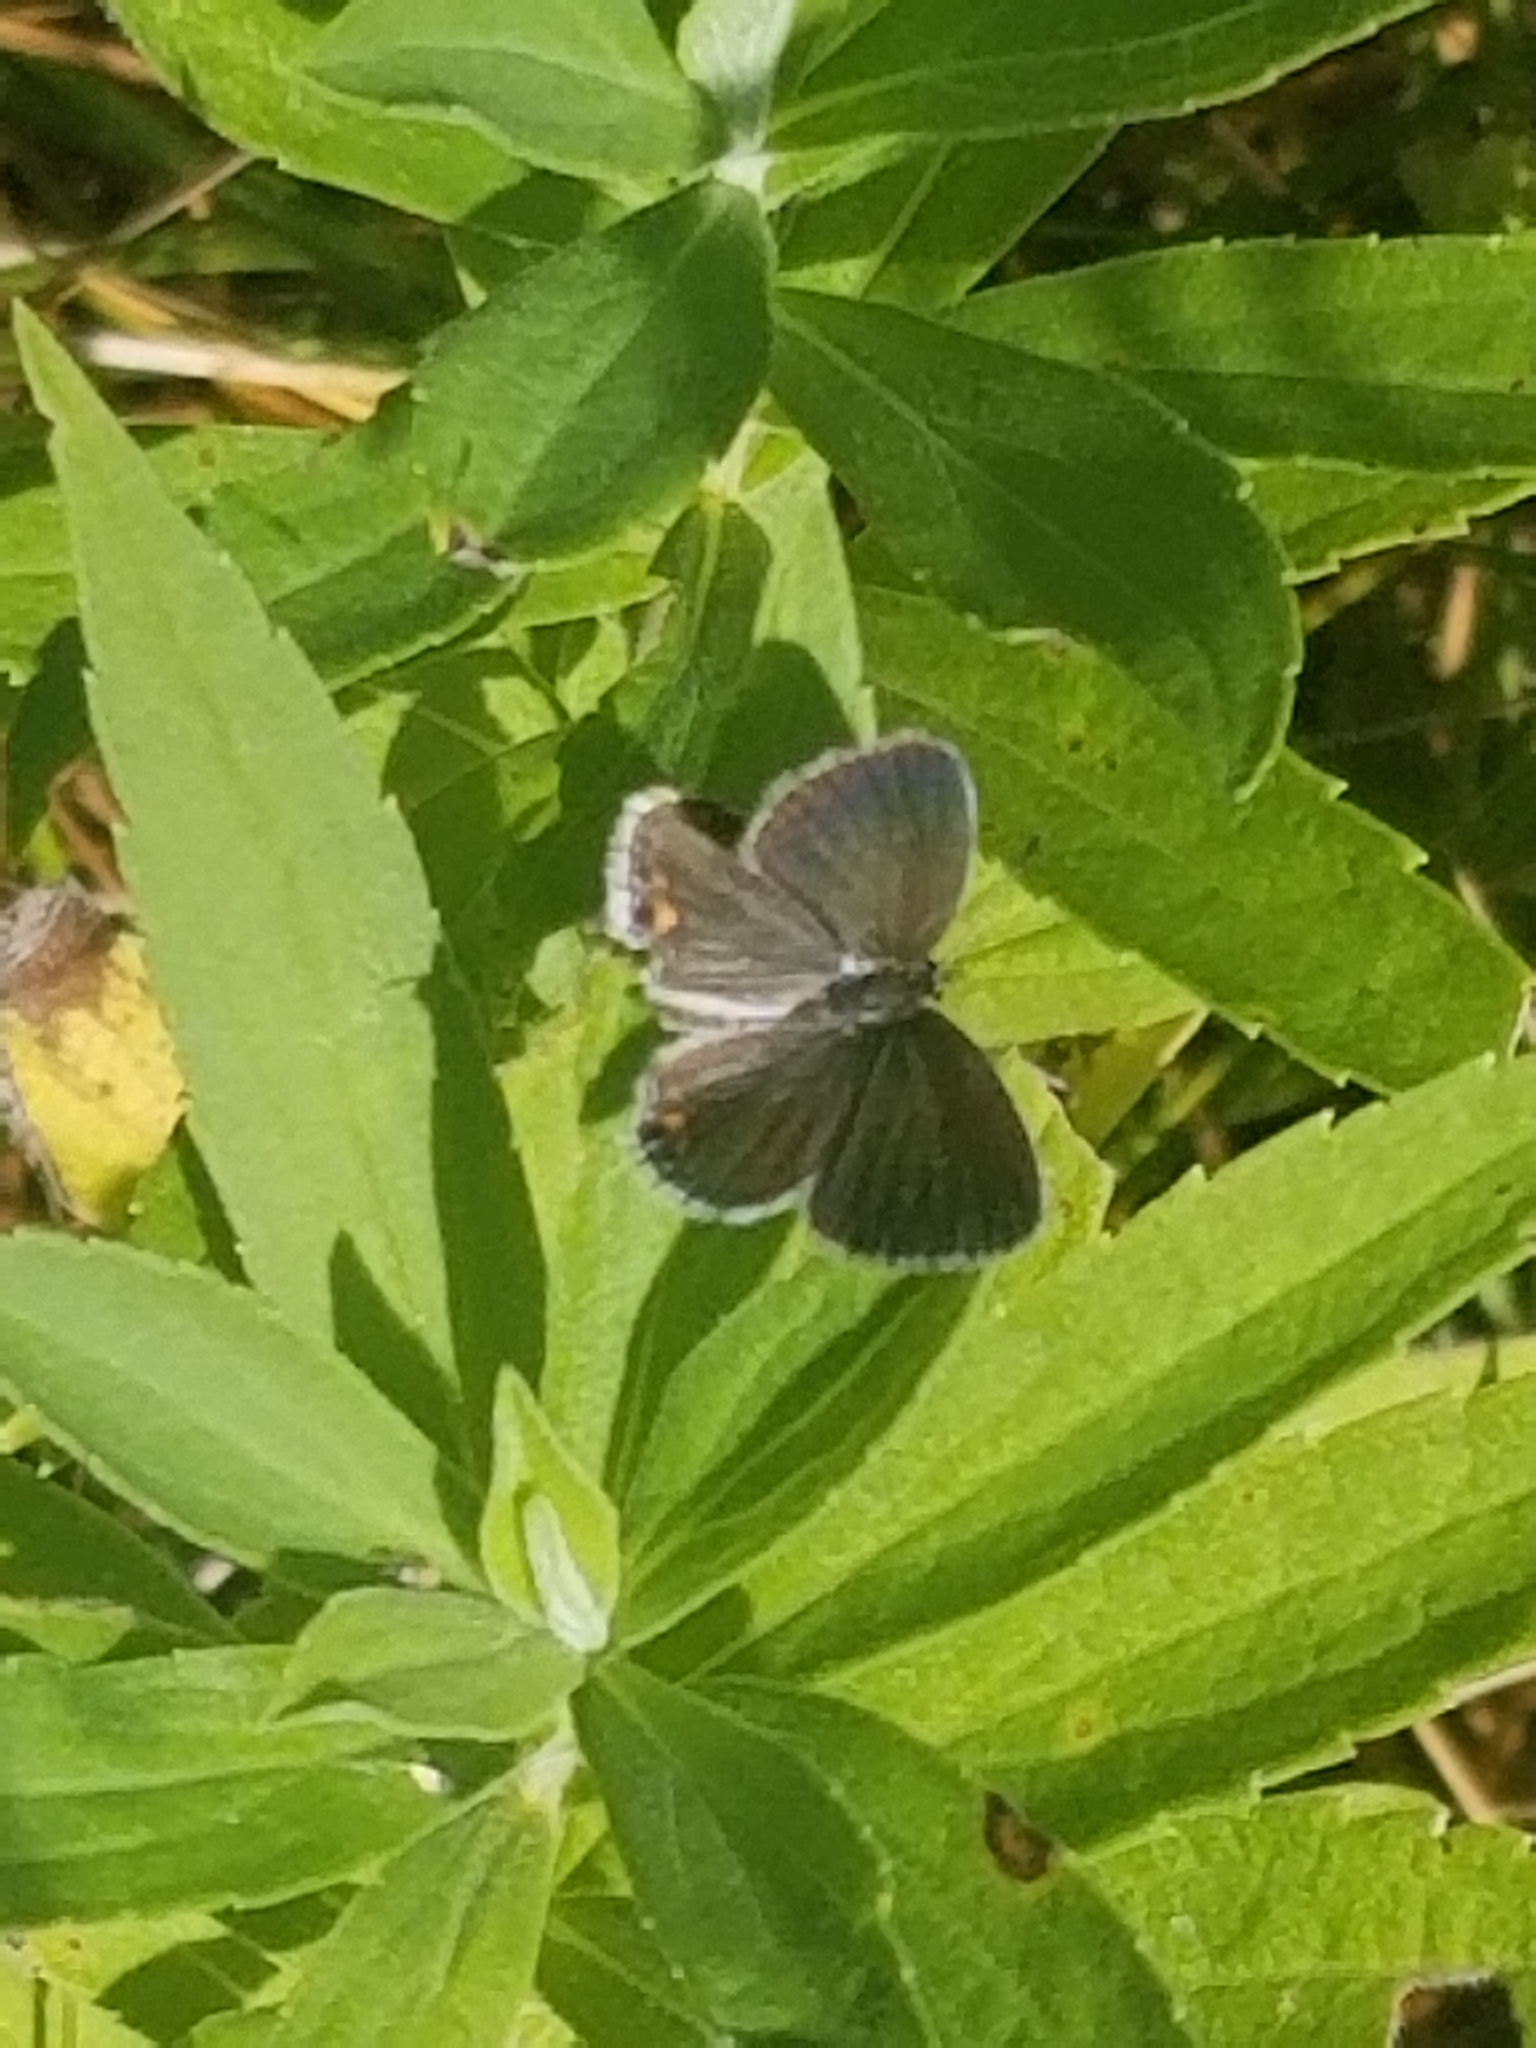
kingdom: Animalia
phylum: Arthropoda
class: Insecta
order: Lepidoptera
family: Lycaenidae
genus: Strymon
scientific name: Strymon melinus
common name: Gray hairstreak
